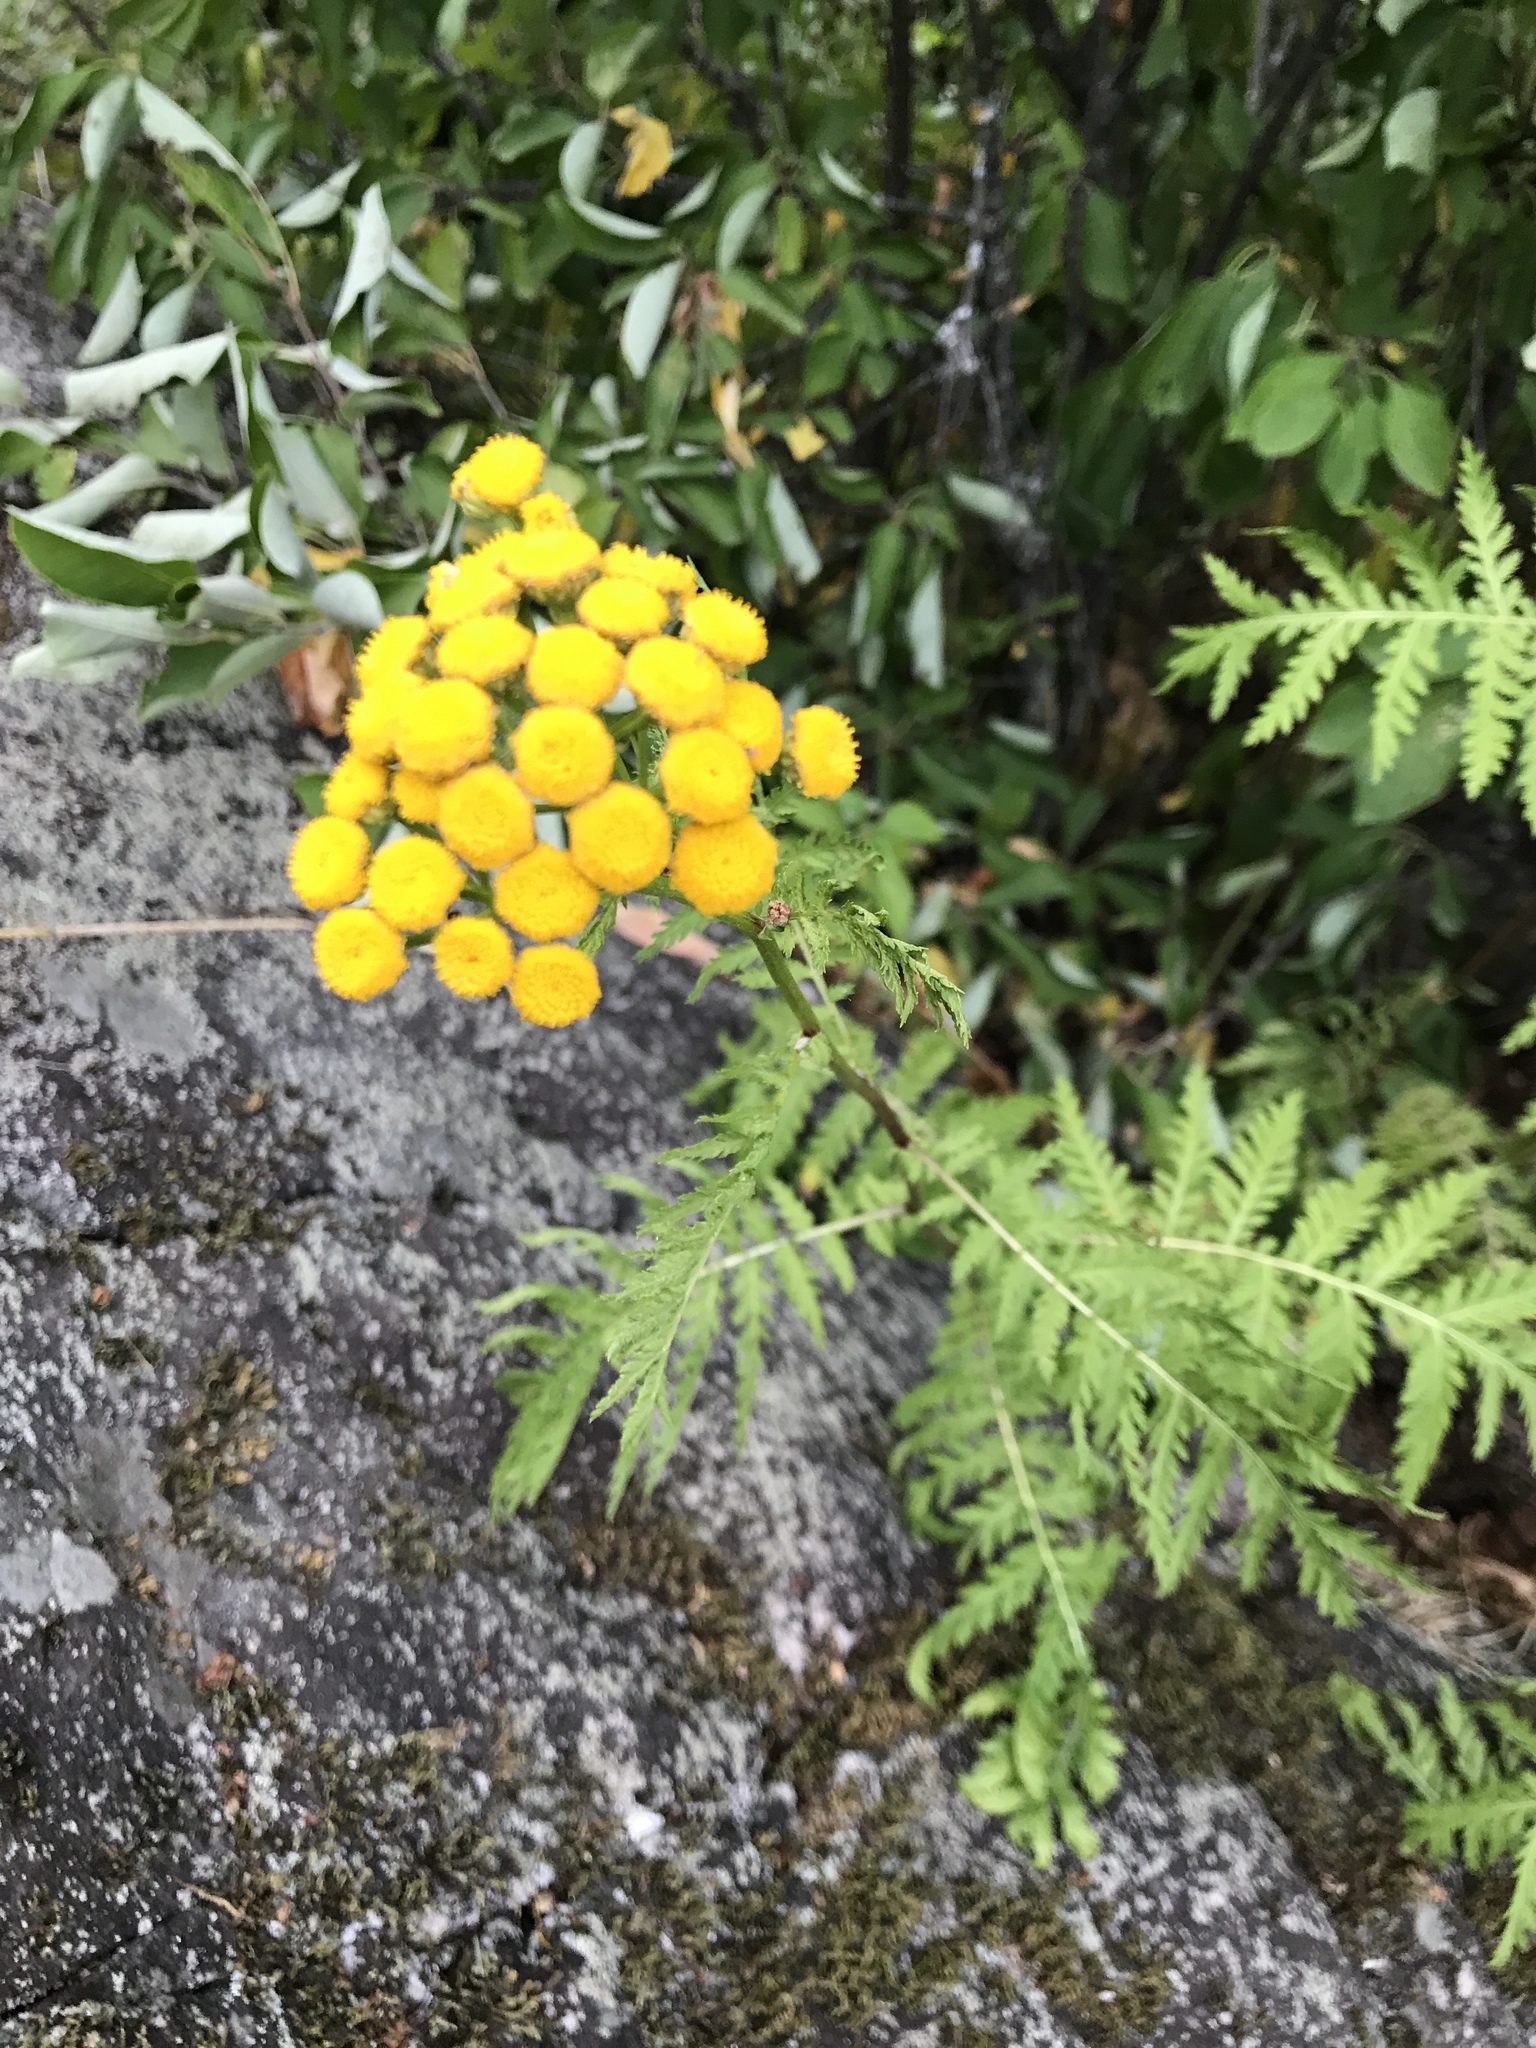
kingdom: Plantae
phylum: Tracheophyta
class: Magnoliopsida
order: Asterales
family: Asteraceae
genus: Tanacetum
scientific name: Tanacetum vulgare
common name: Common tansy
